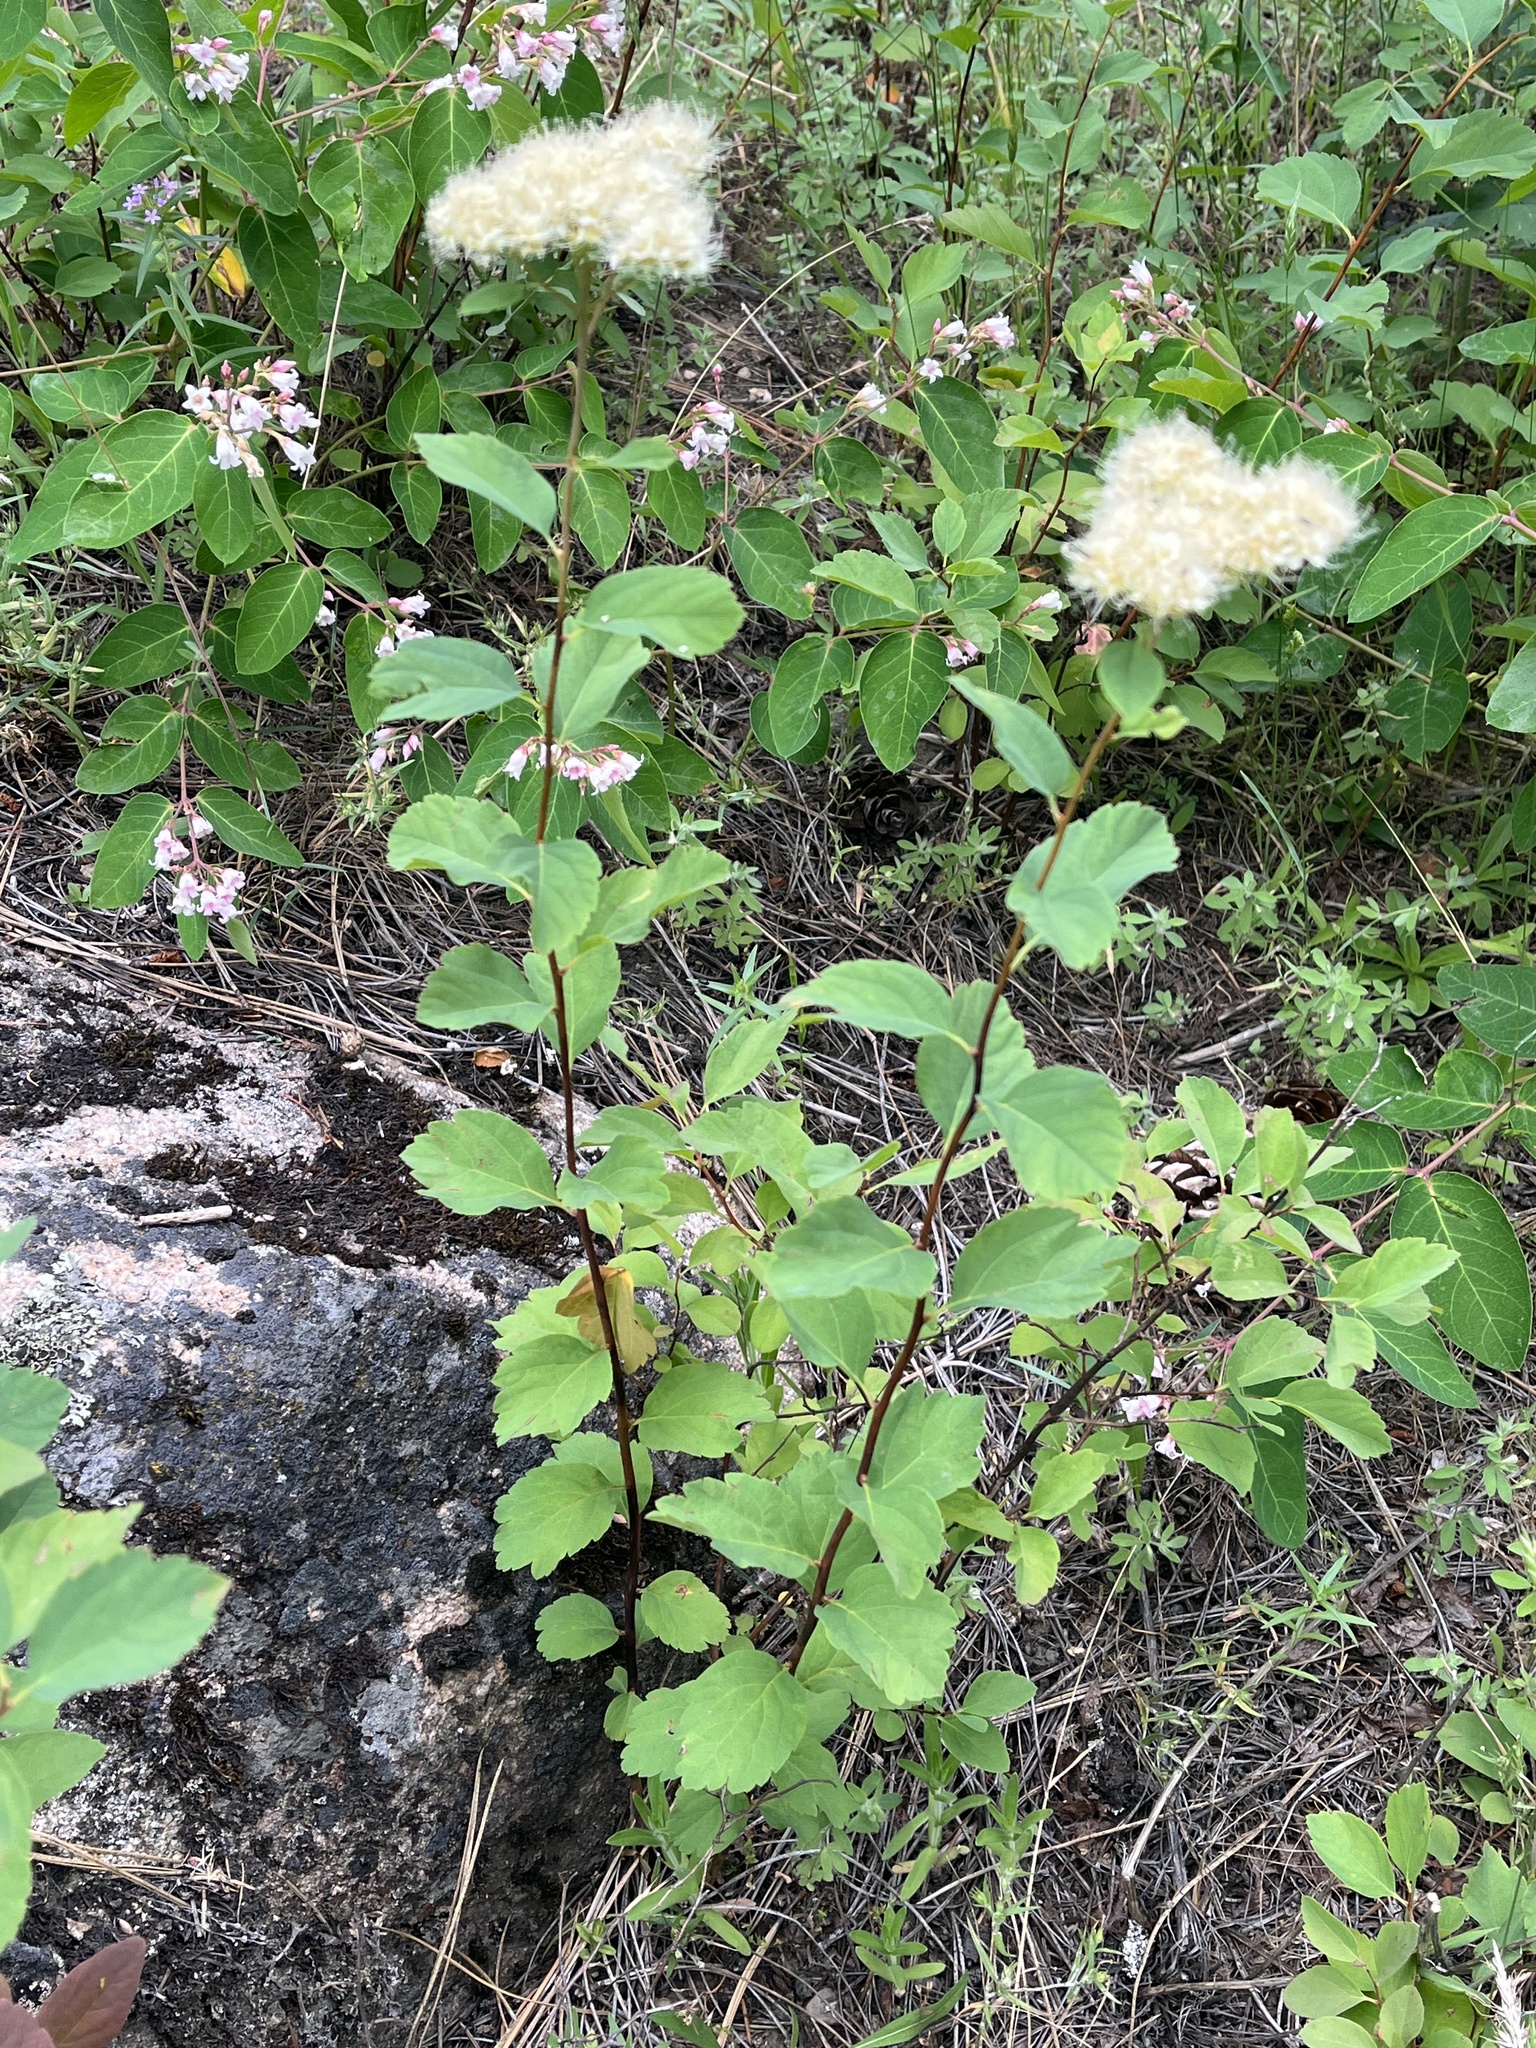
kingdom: Plantae
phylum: Tracheophyta
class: Magnoliopsida
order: Rosales
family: Rosaceae
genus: Spiraea
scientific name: Spiraea lucida
